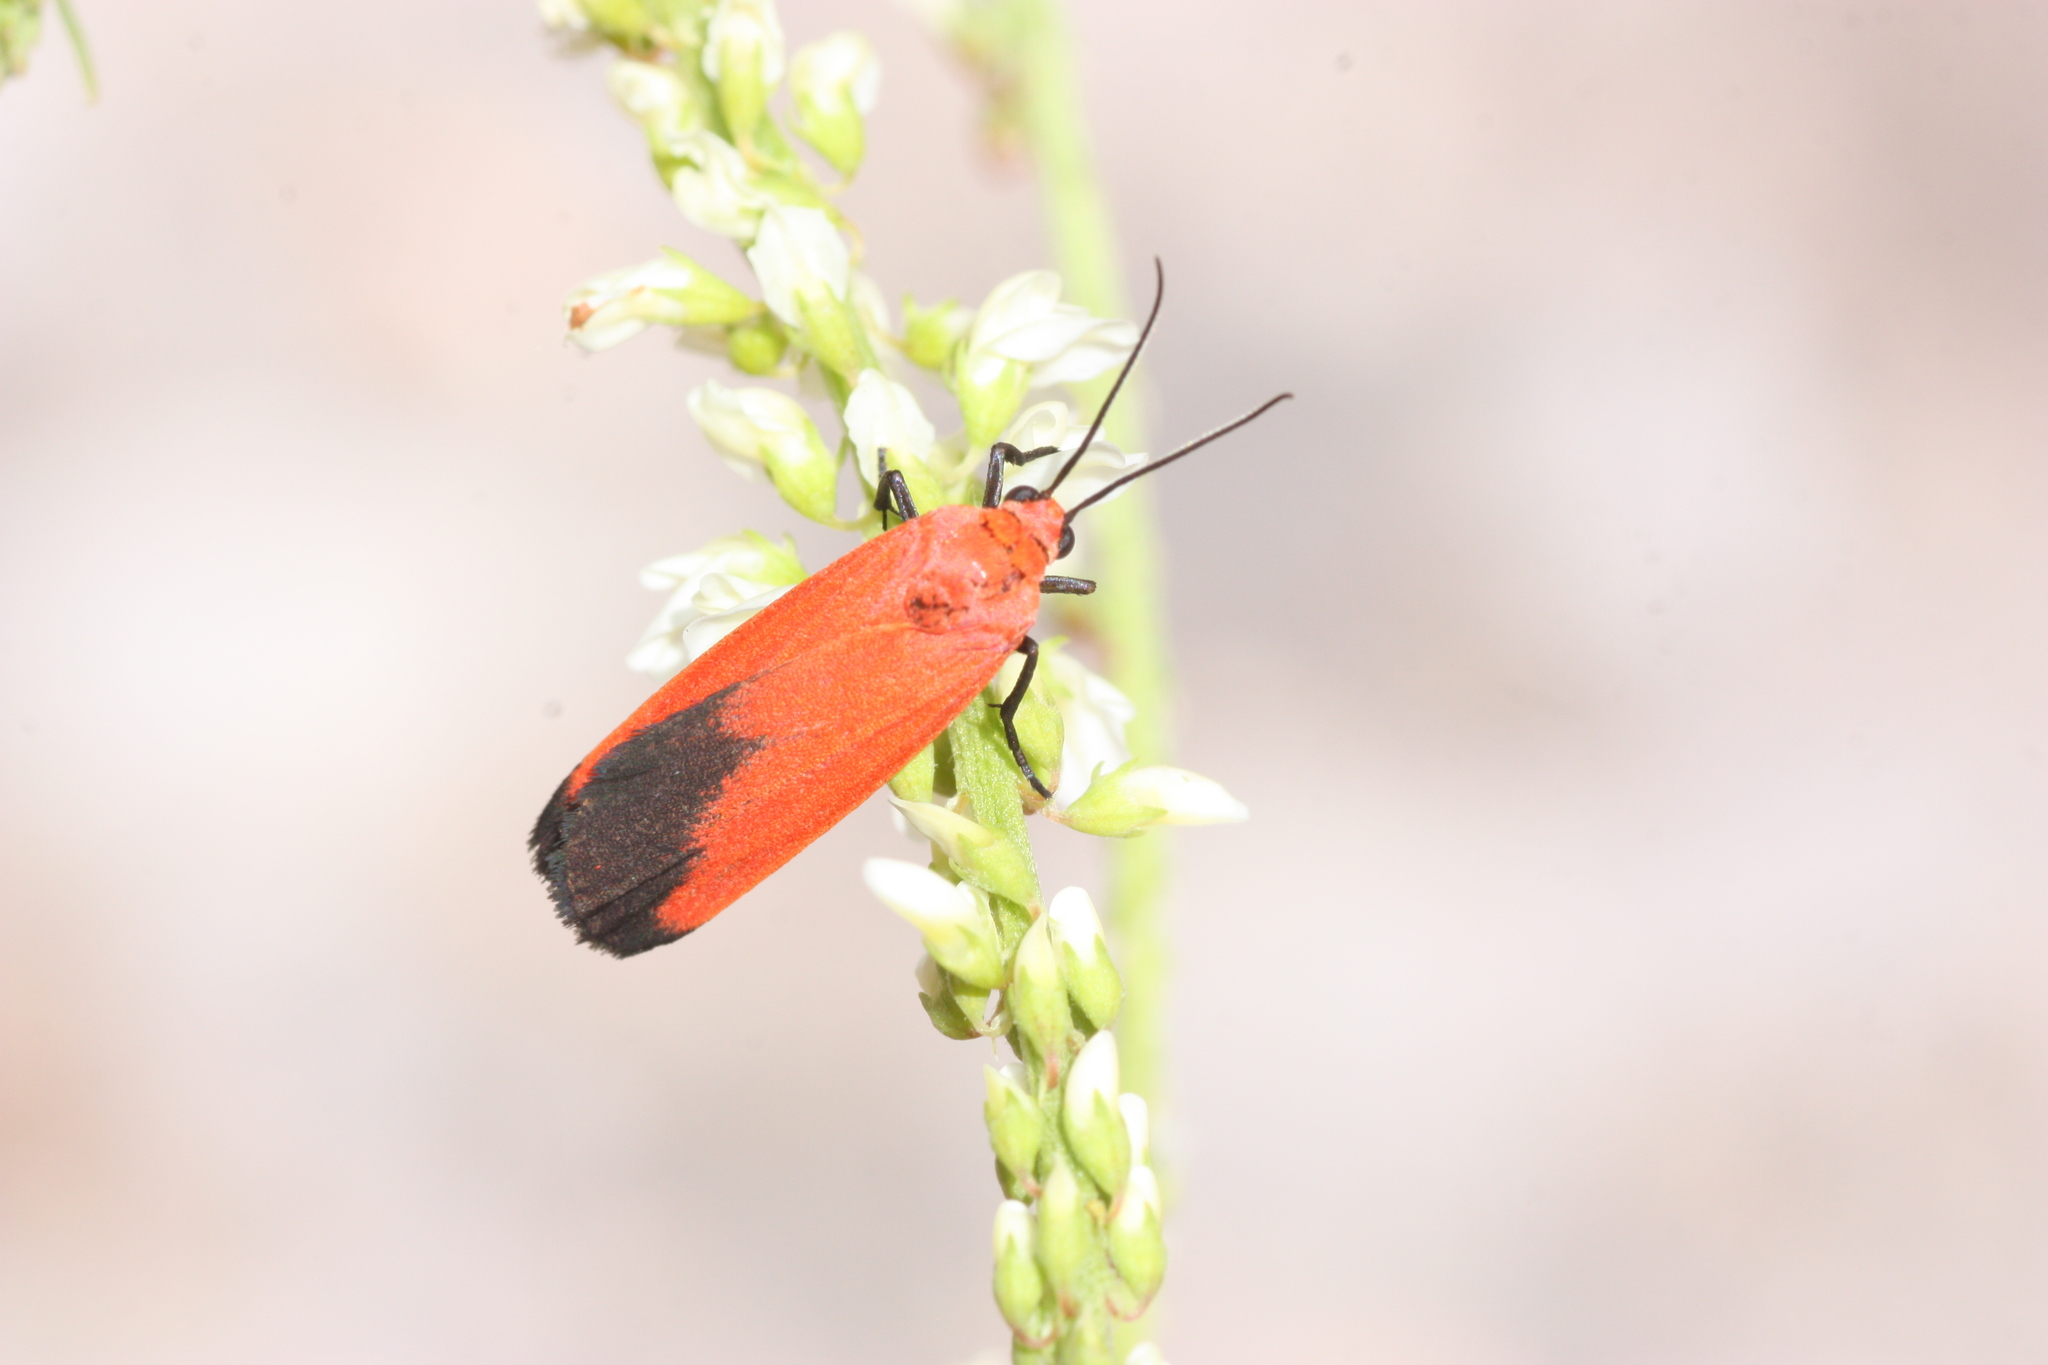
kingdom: Animalia
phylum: Arthropoda
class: Insecta
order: Lepidoptera
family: Erebidae
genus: Ptychoglene
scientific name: Ptychoglene coccinea
